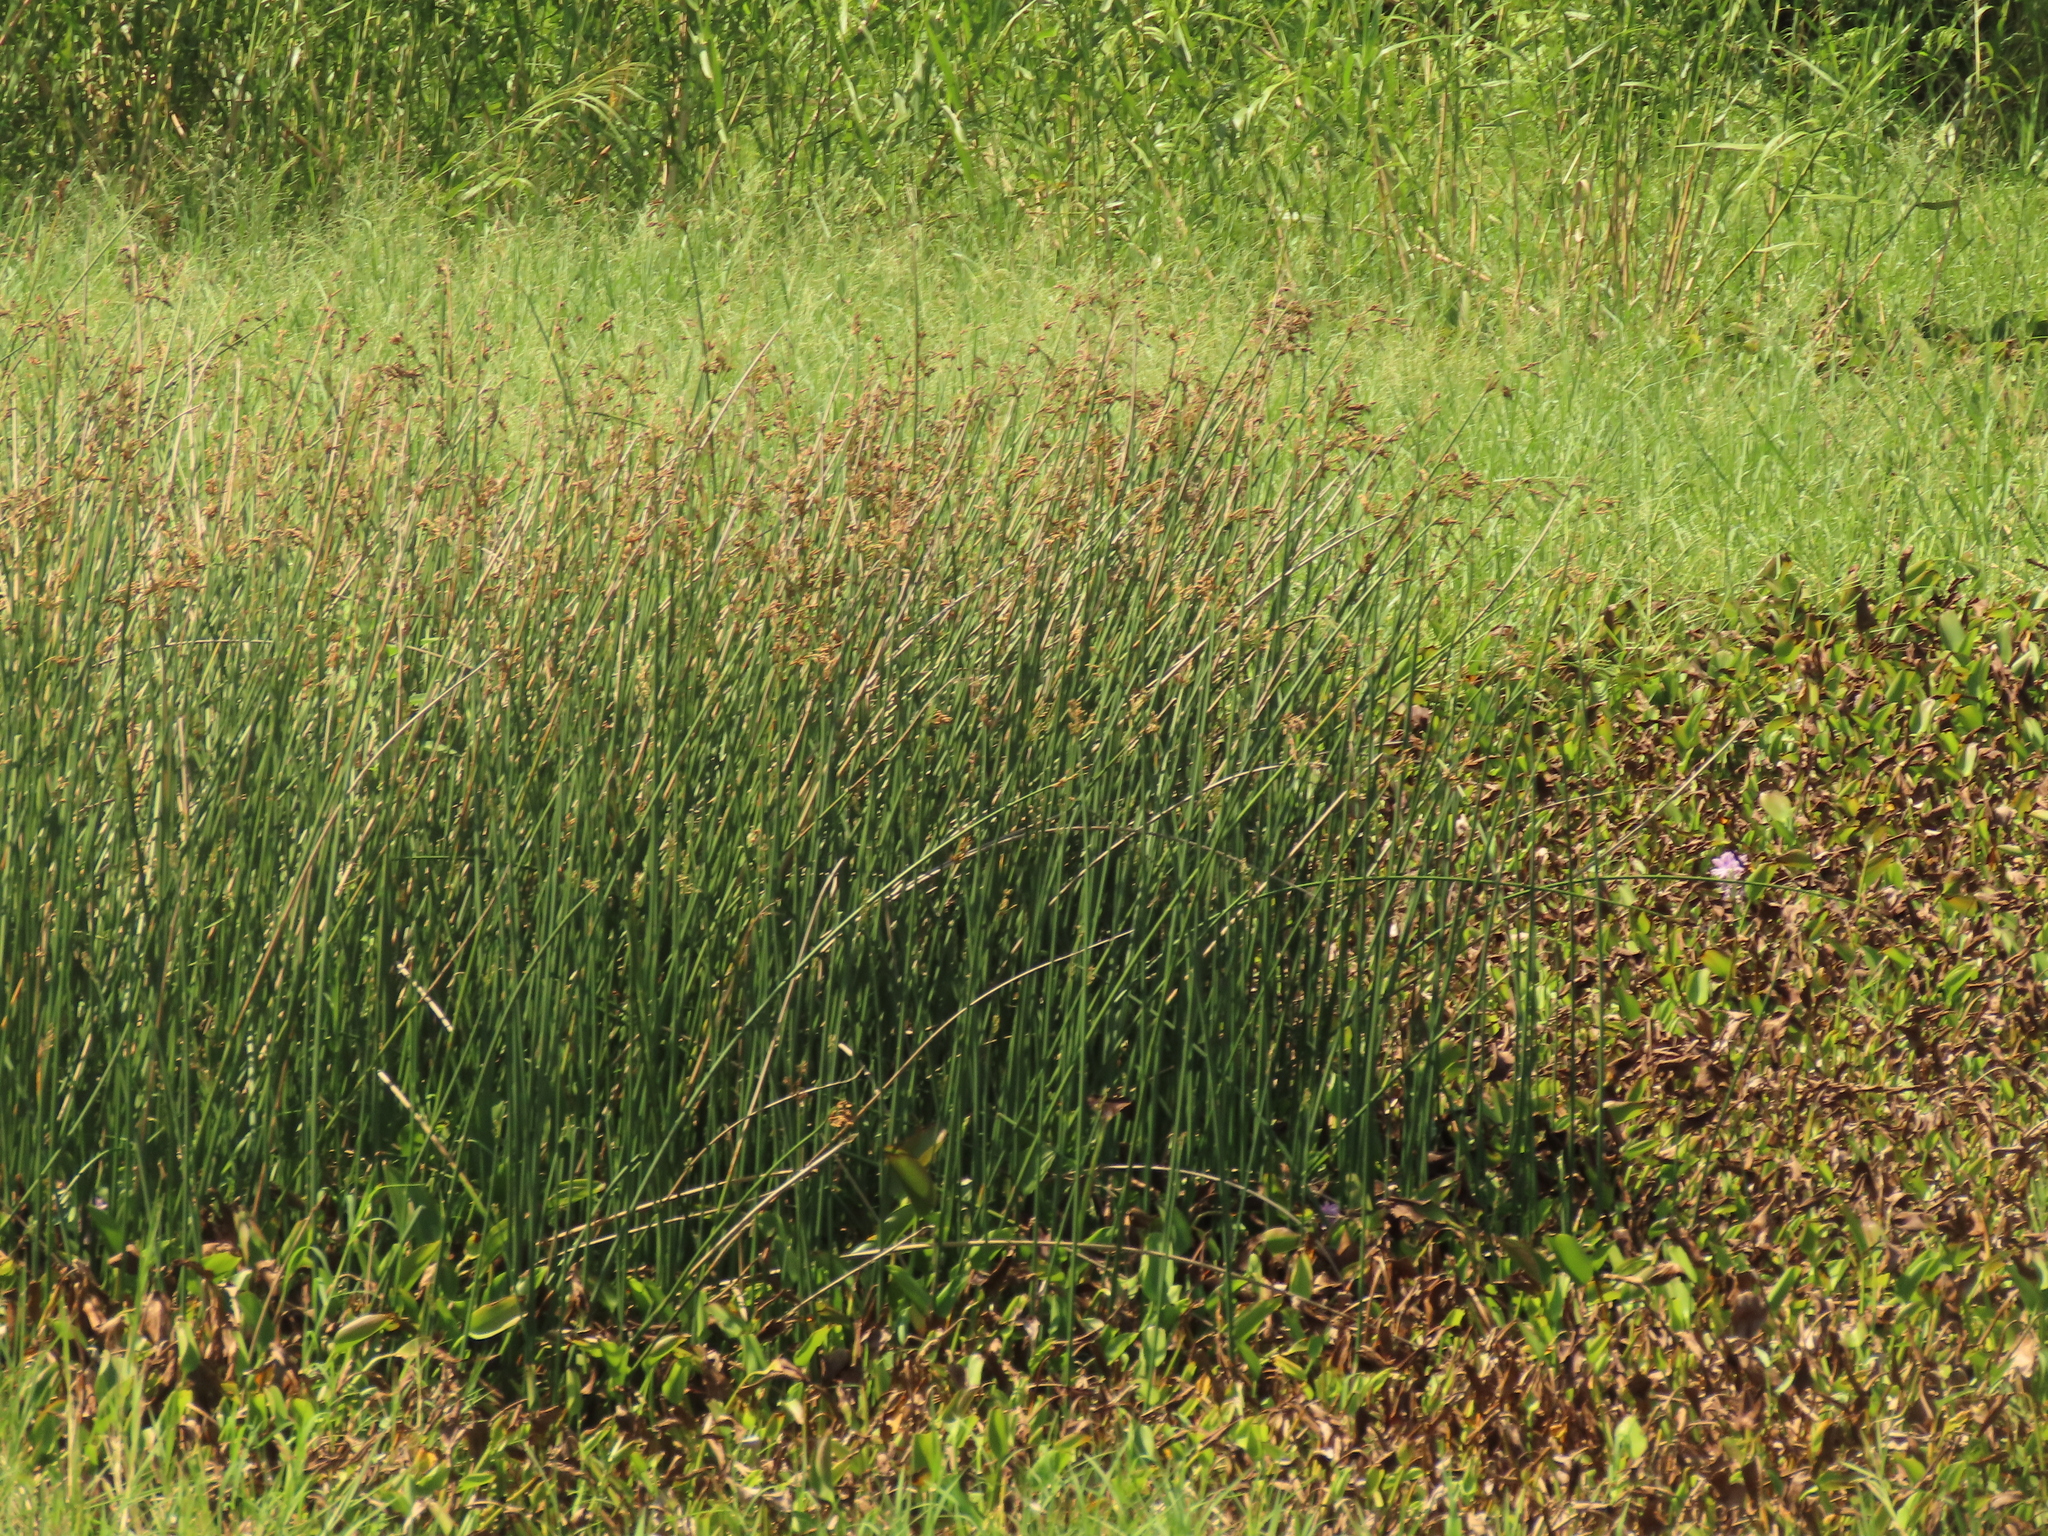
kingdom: Plantae
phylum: Tracheophyta
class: Liliopsida
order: Poales
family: Cyperaceae
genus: Schoenoplectus
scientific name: Schoenoplectus tabernaemontani
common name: Grey club-rush
